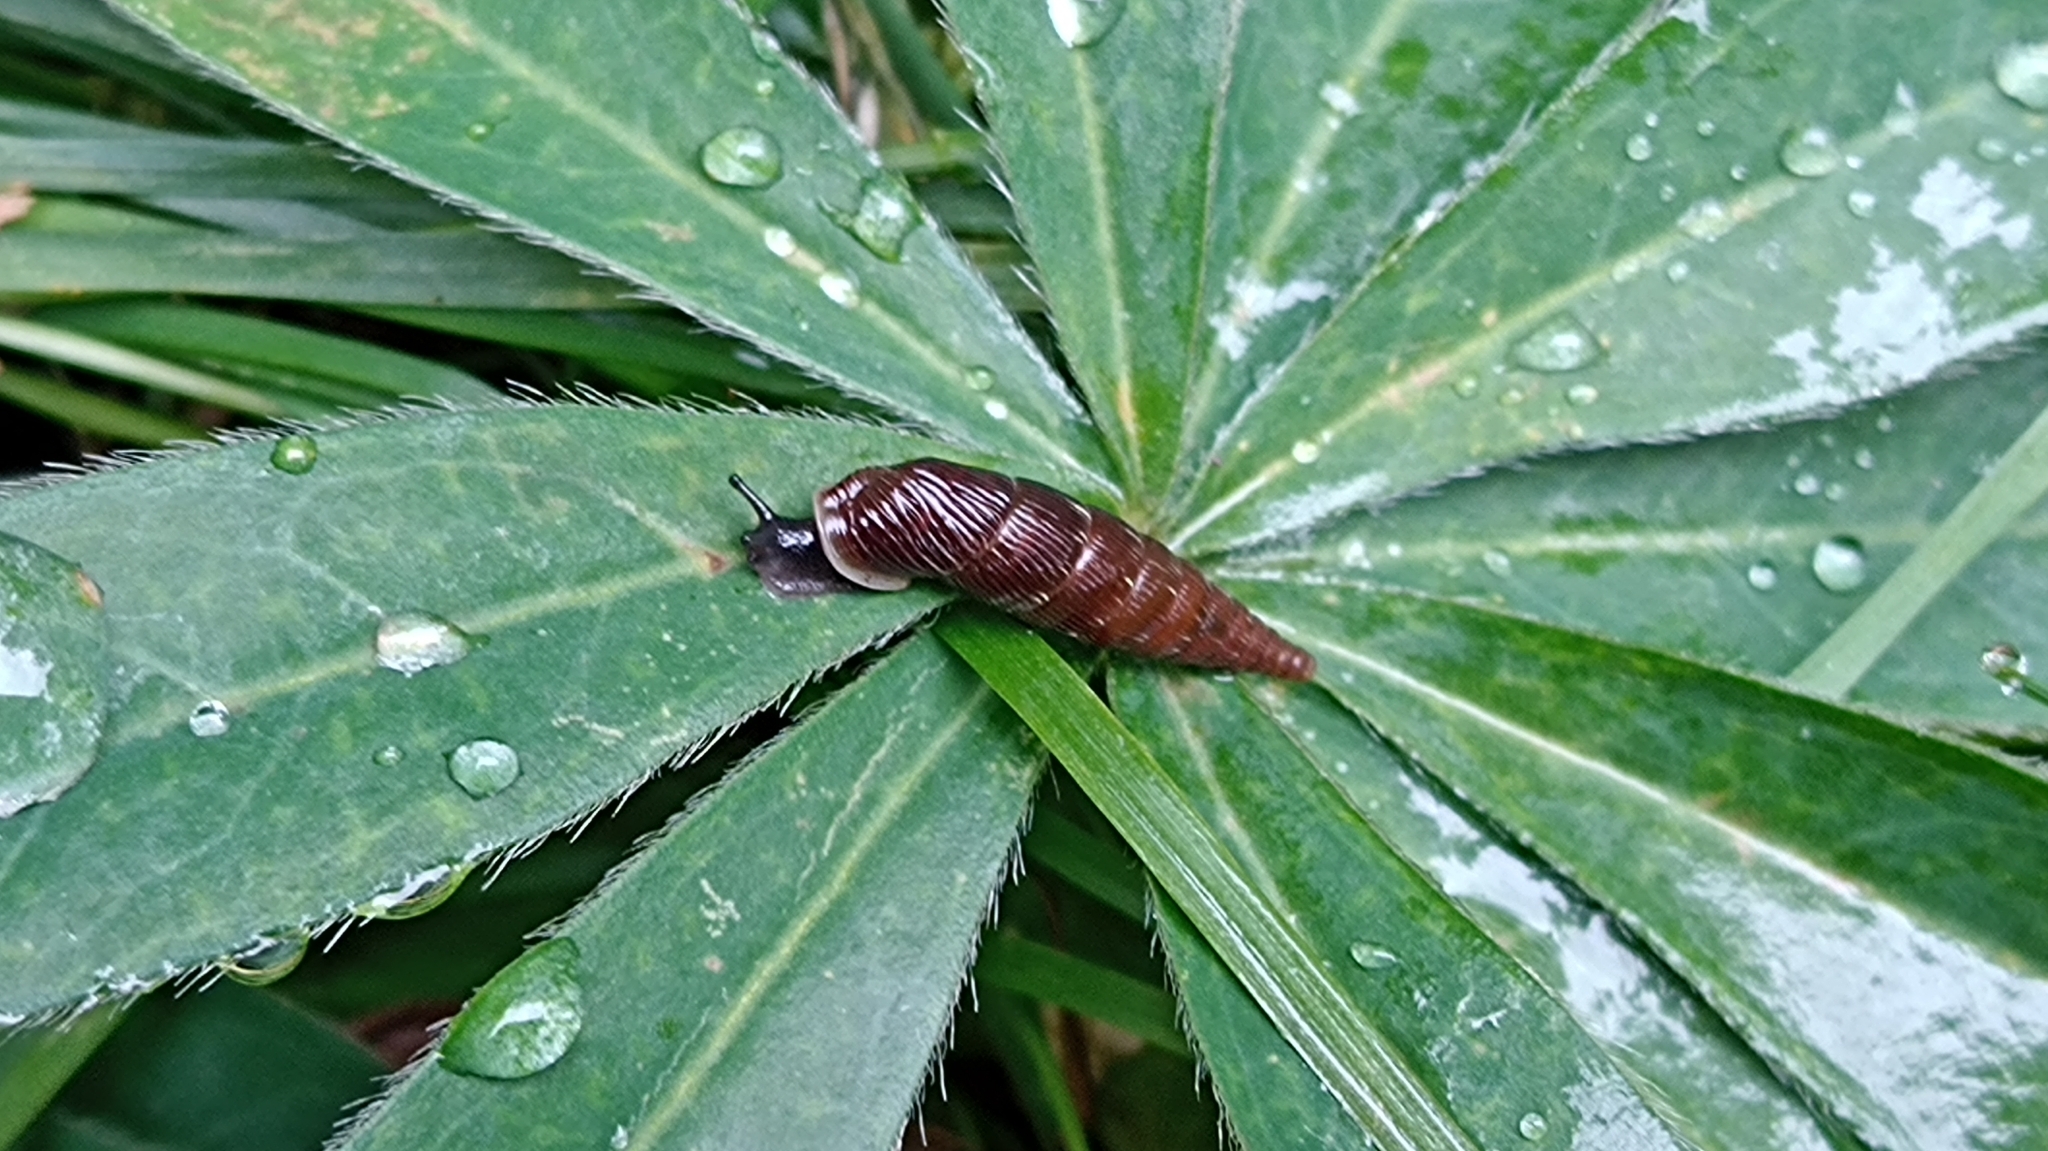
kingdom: Animalia
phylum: Mollusca
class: Gastropoda
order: Stylommatophora
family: Clausiliidae
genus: Alinda
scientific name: Alinda biplicata
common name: Thames door snail
